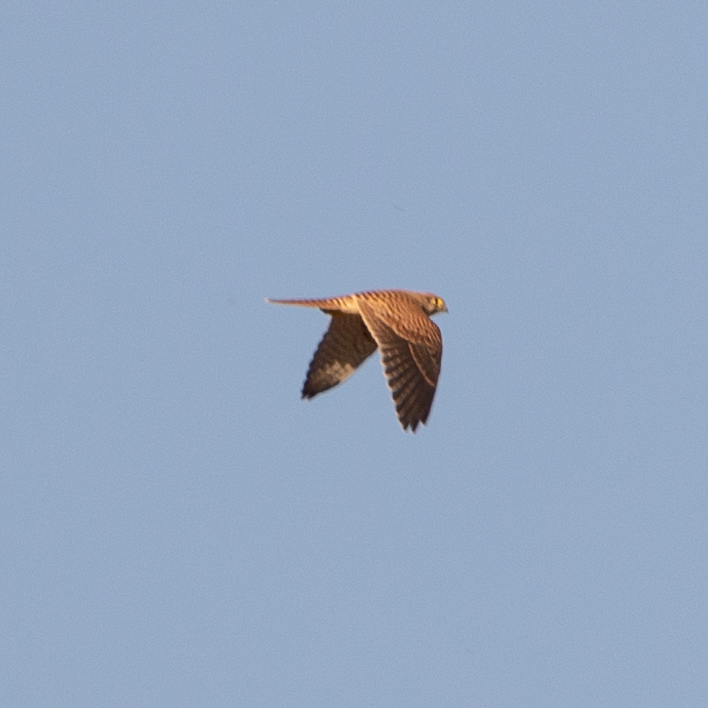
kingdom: Animalia
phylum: Chordata
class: Aves
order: Falconiformes
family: Falconidae
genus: Falco
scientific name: Falco tinnunculus
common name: Common kestrel
